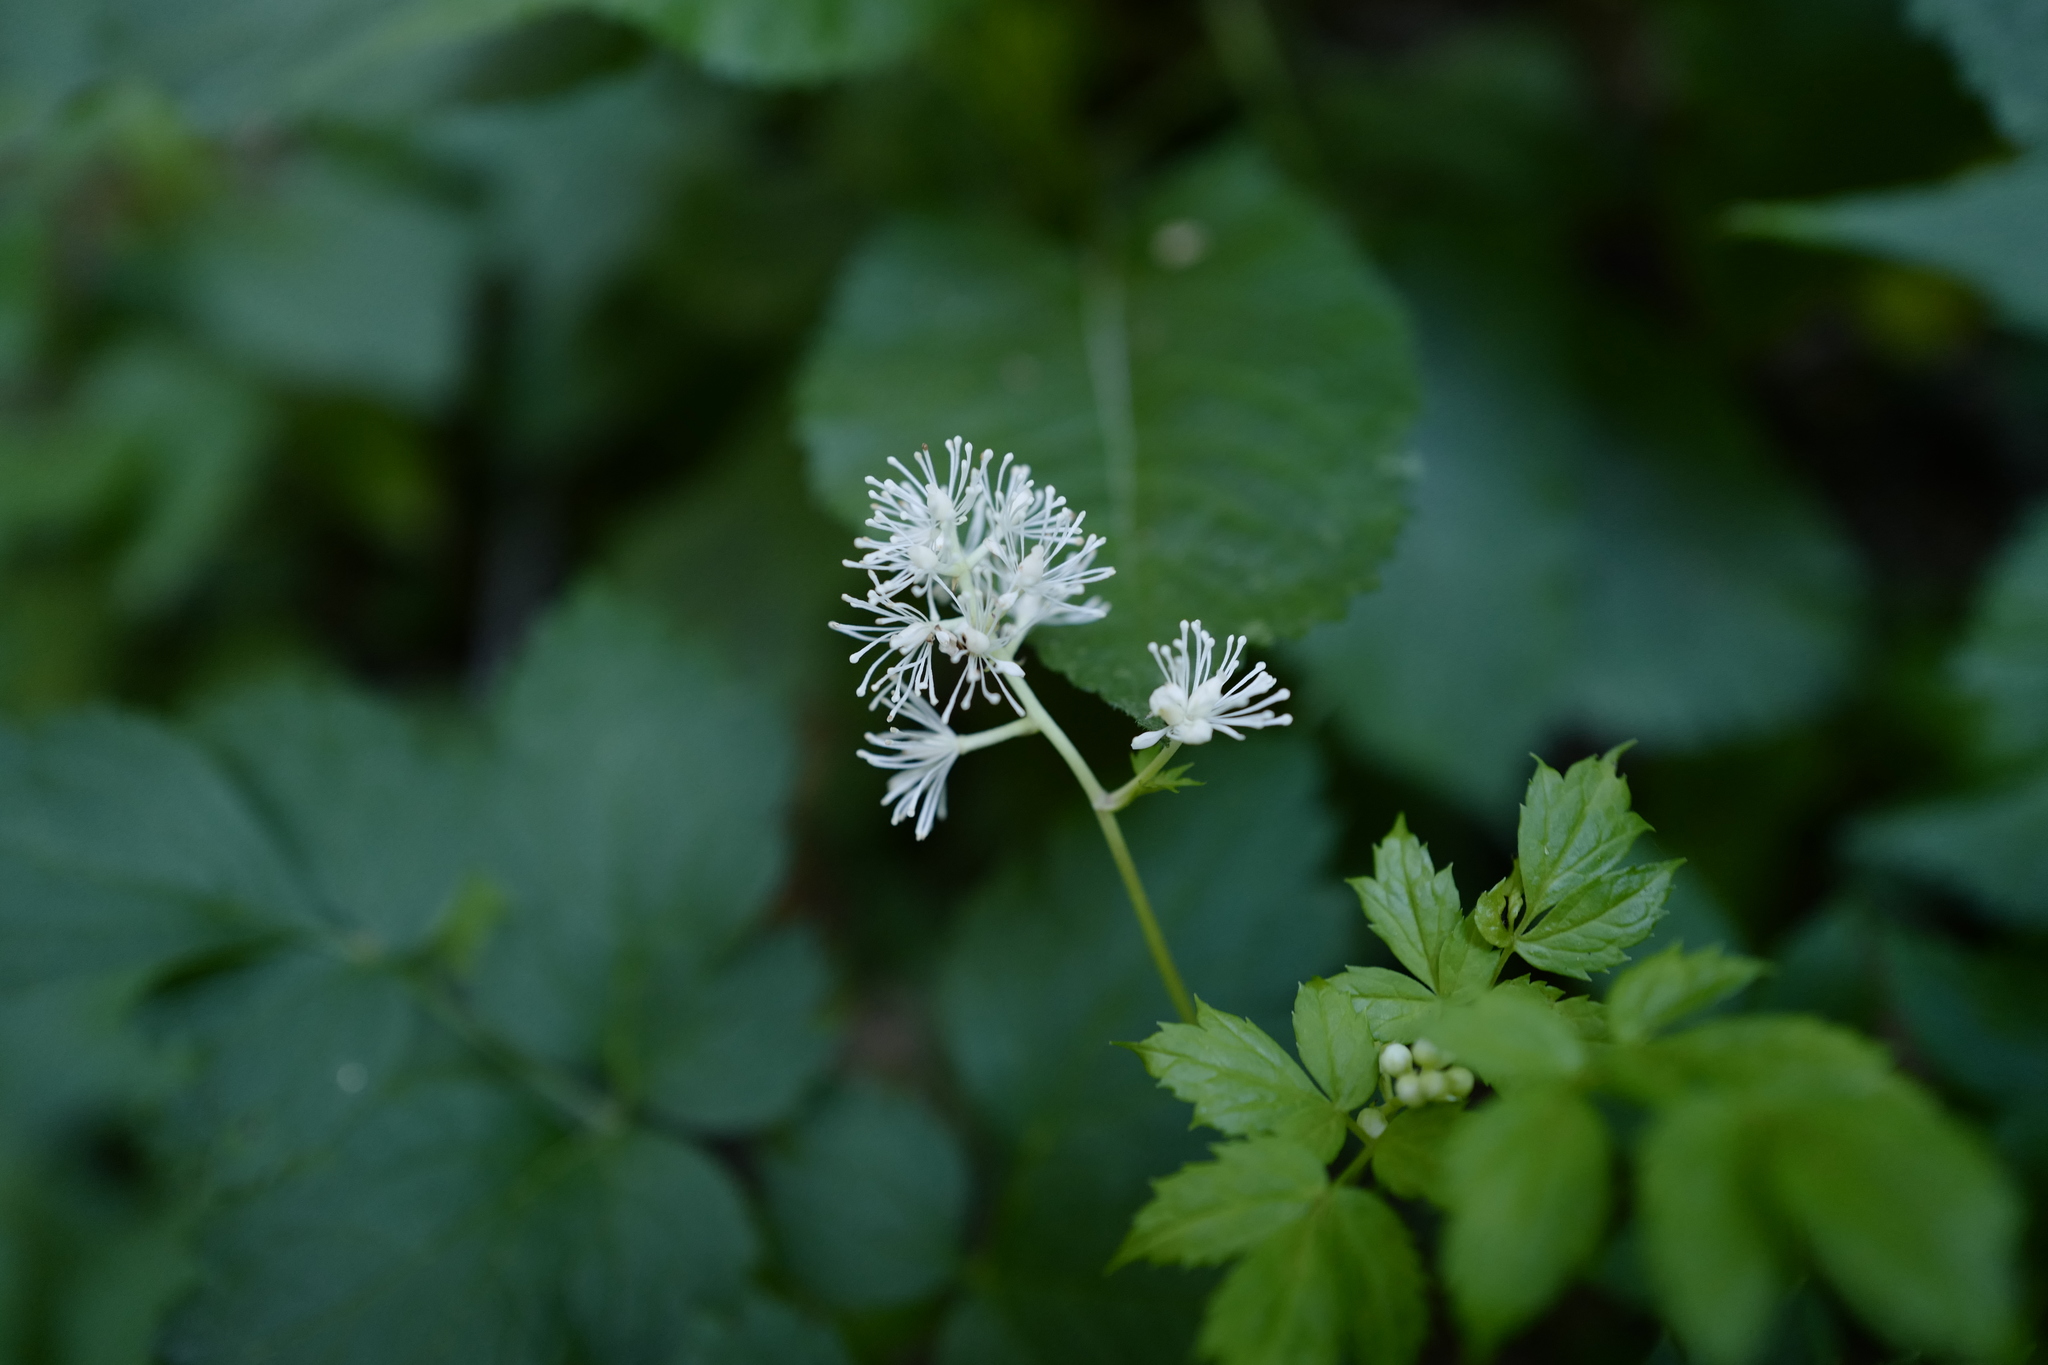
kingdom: Plantae
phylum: Tracheophyta
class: Magnoliopsida
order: Ranunculales
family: Ranunculaceae
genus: Actaea
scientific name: Actaea spicata
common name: Baneberry
